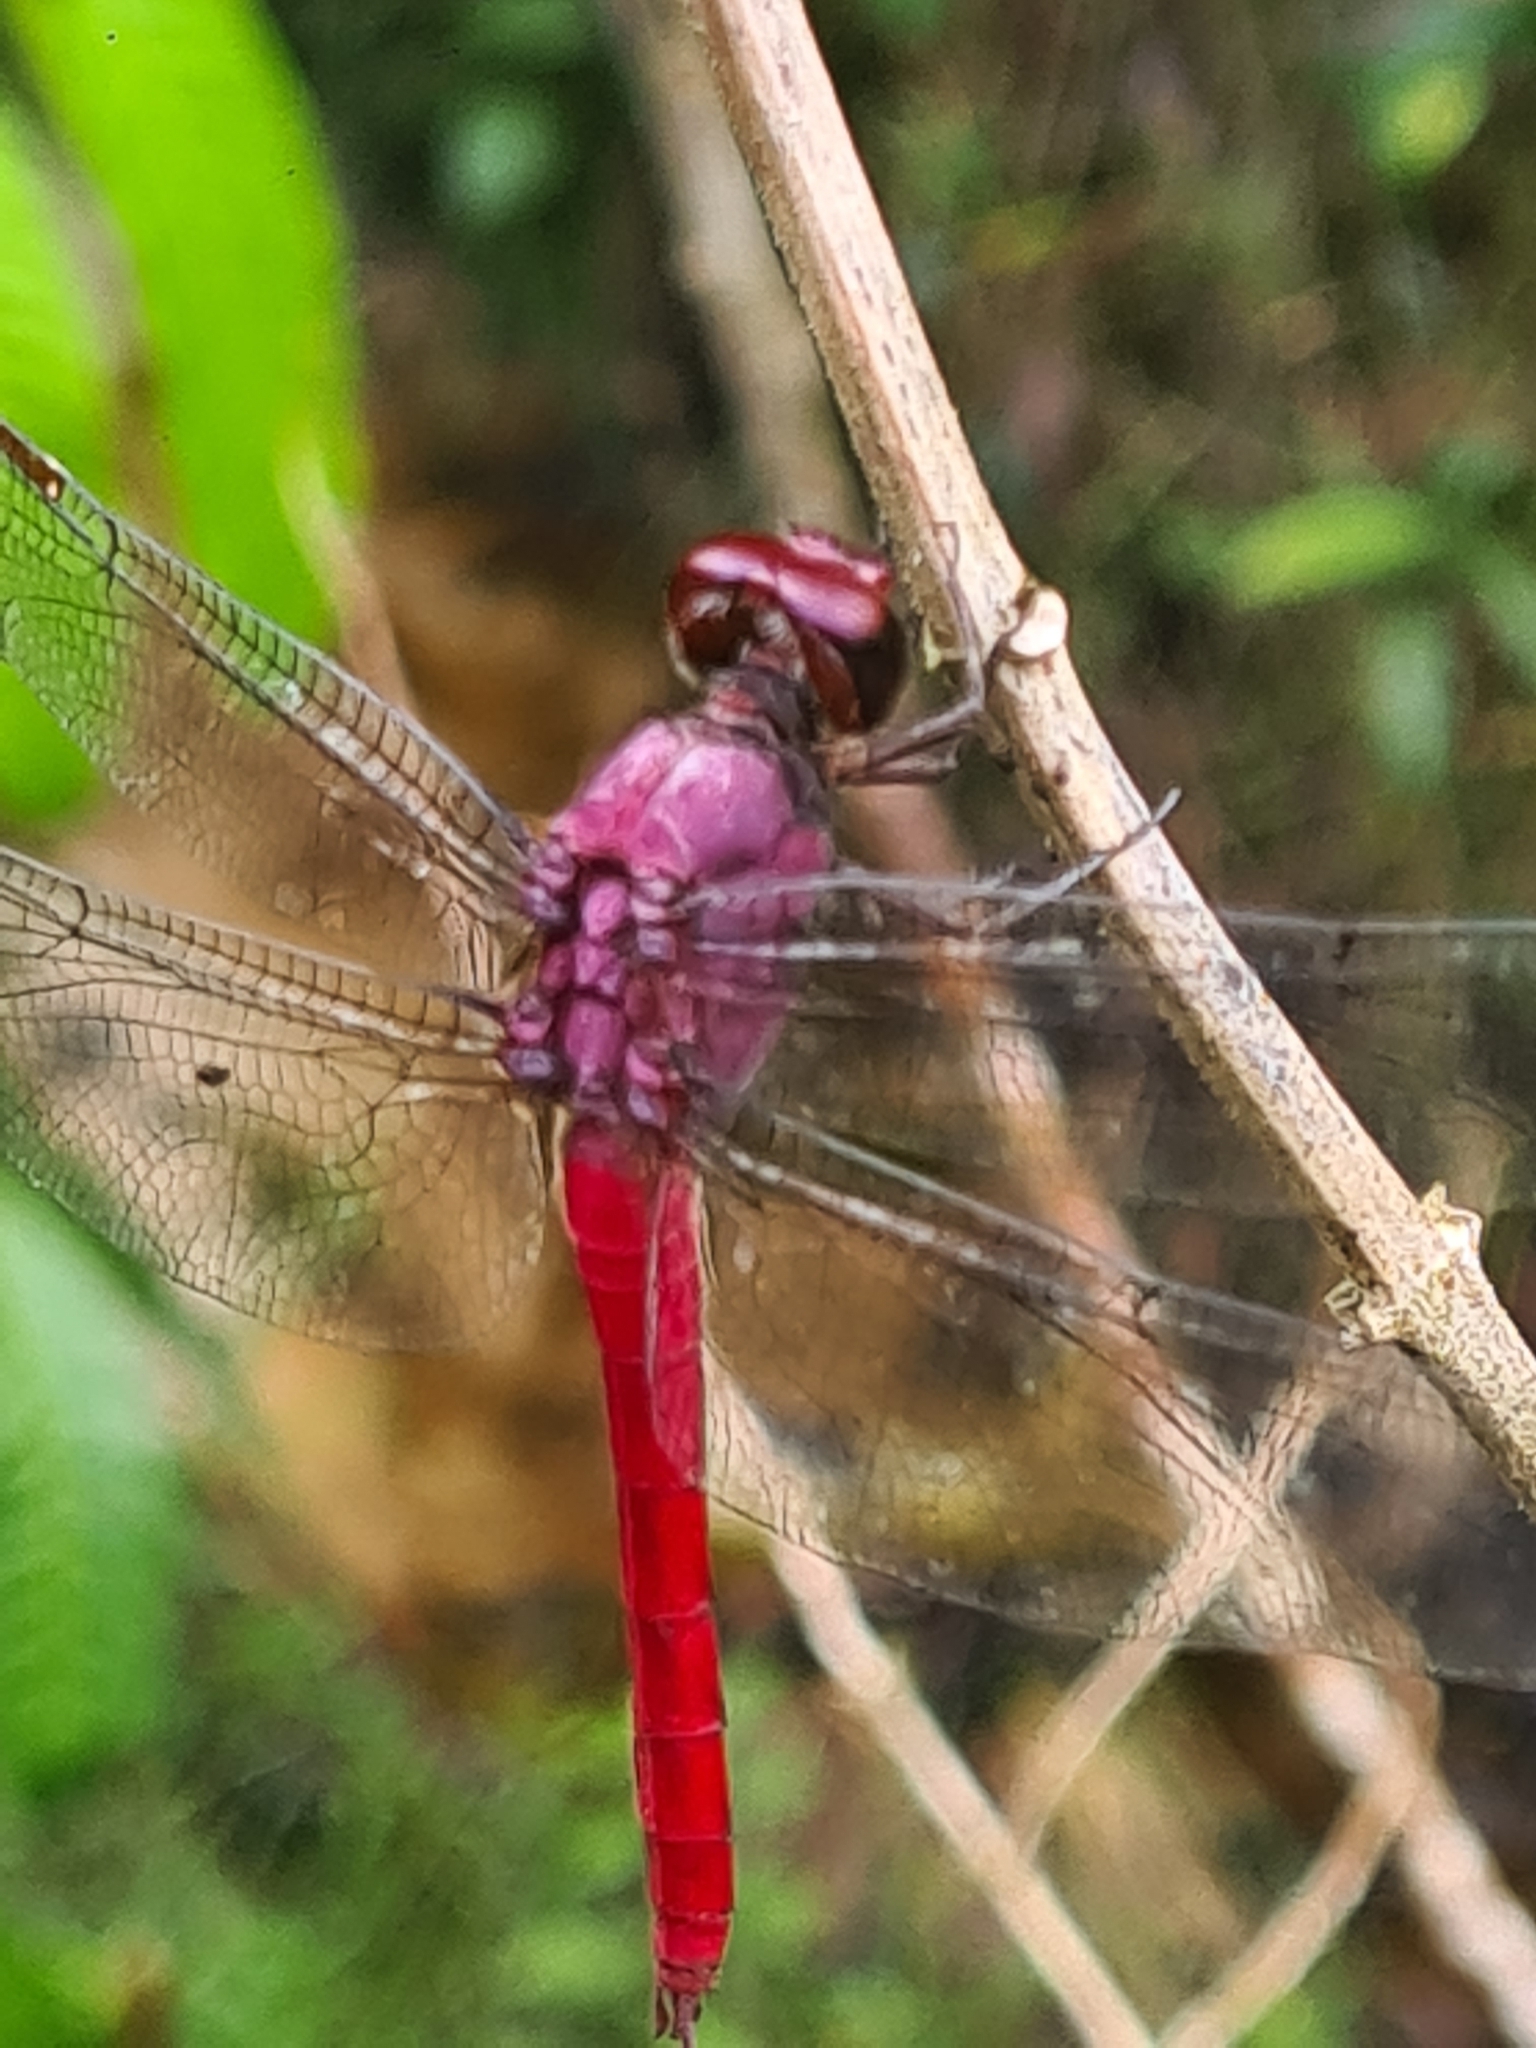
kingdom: Animalia
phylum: Arthropoda
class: Insecta
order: Odonata
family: Libellulidae
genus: Orthemis
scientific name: Orthemis schmidti
